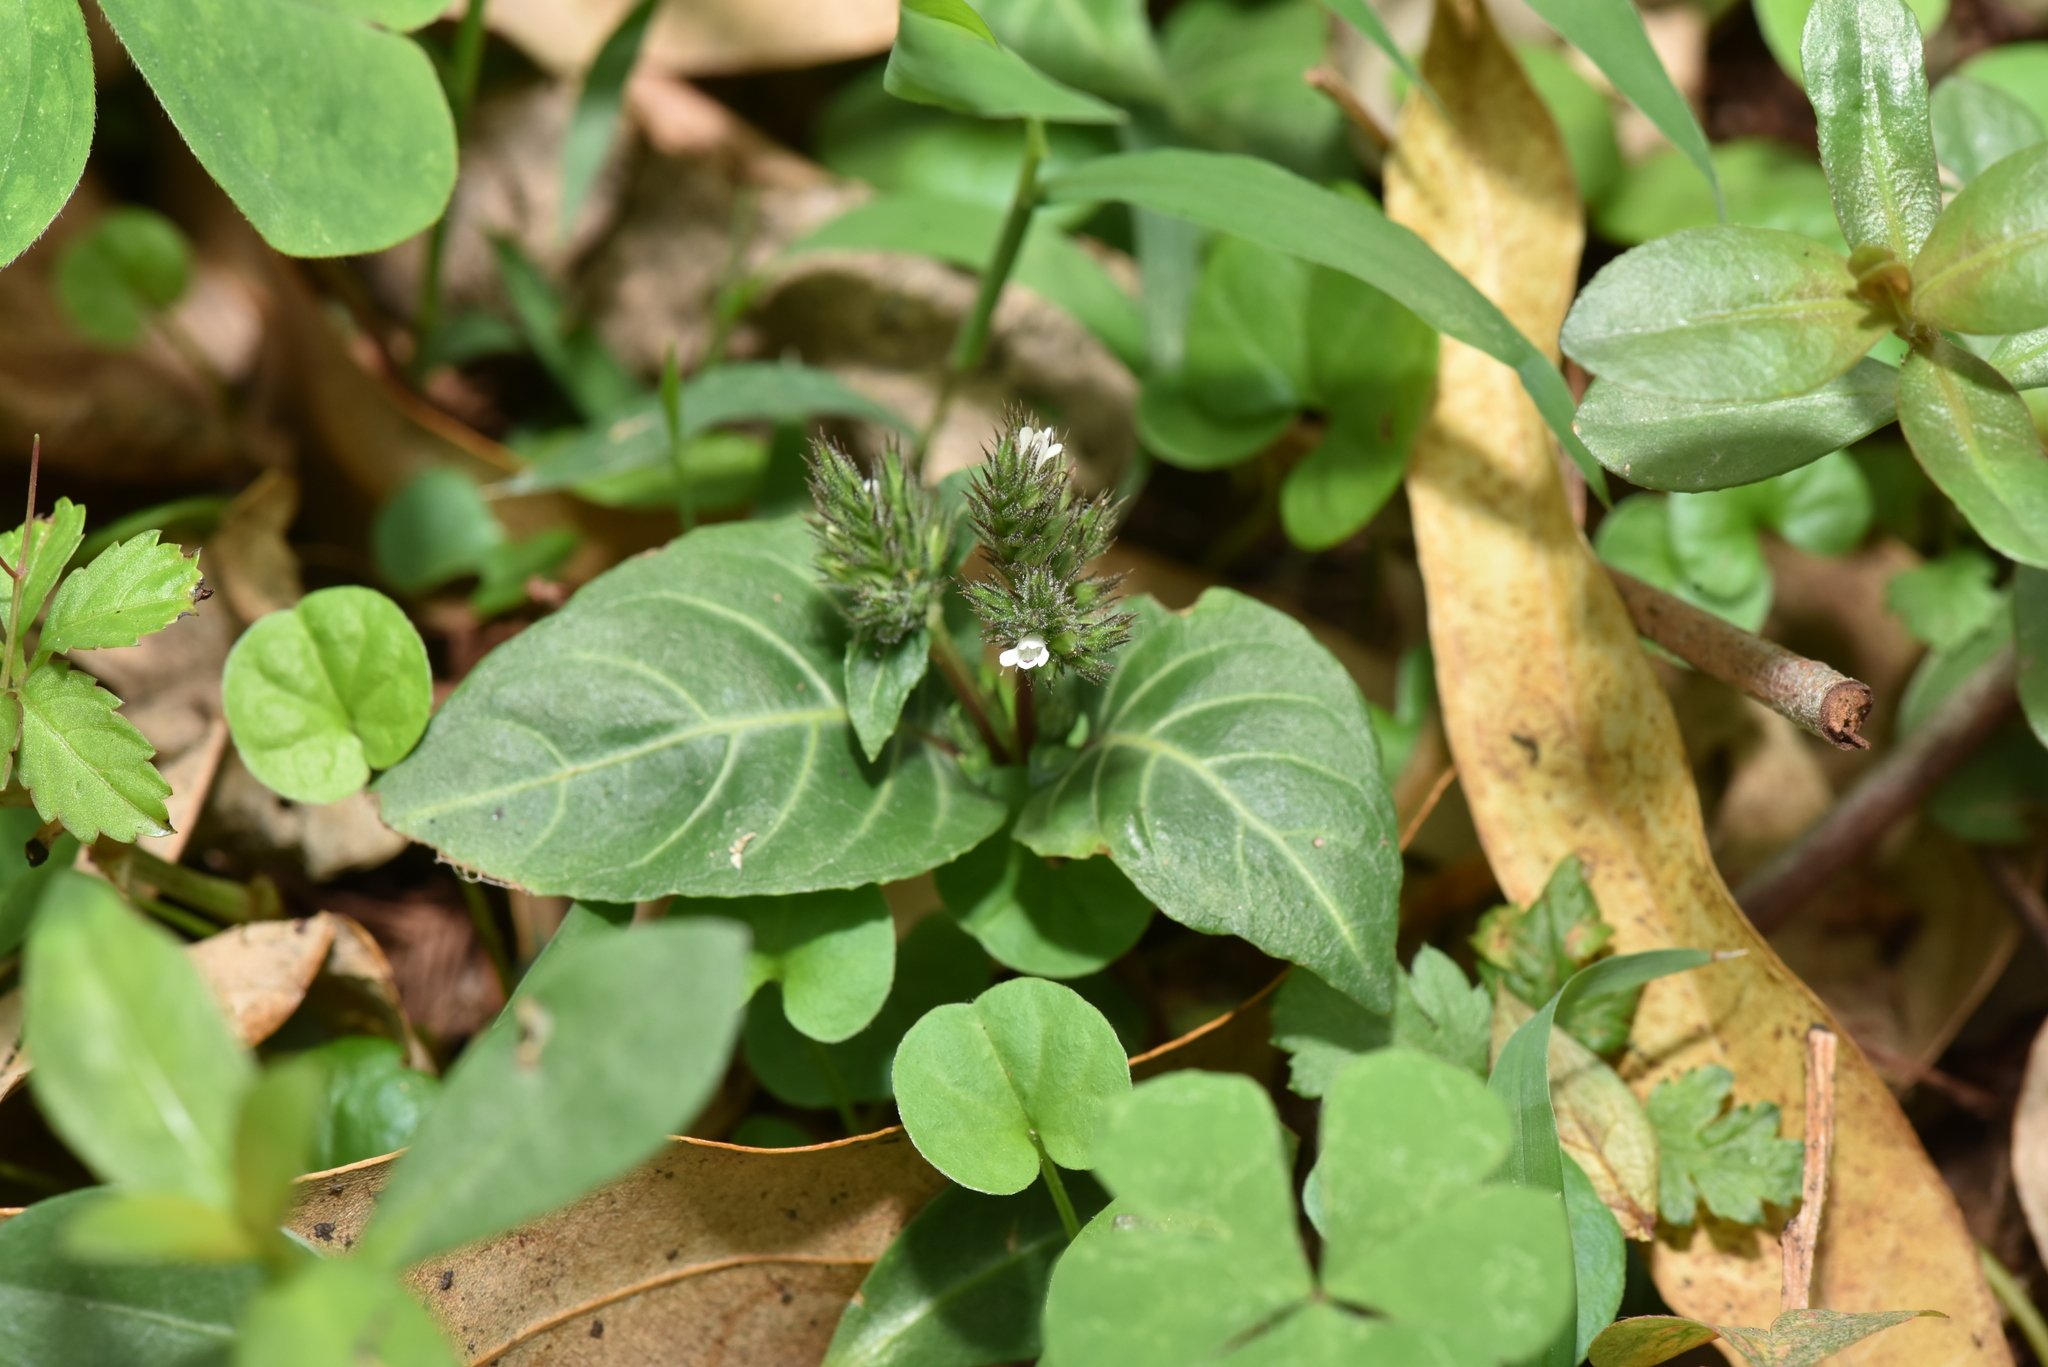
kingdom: Plantae
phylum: Tracheophyta
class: Magnoliopsida
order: Lamiales
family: Acanthaceae
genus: Lepidagathis
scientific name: Lepidagathis inaequalis
